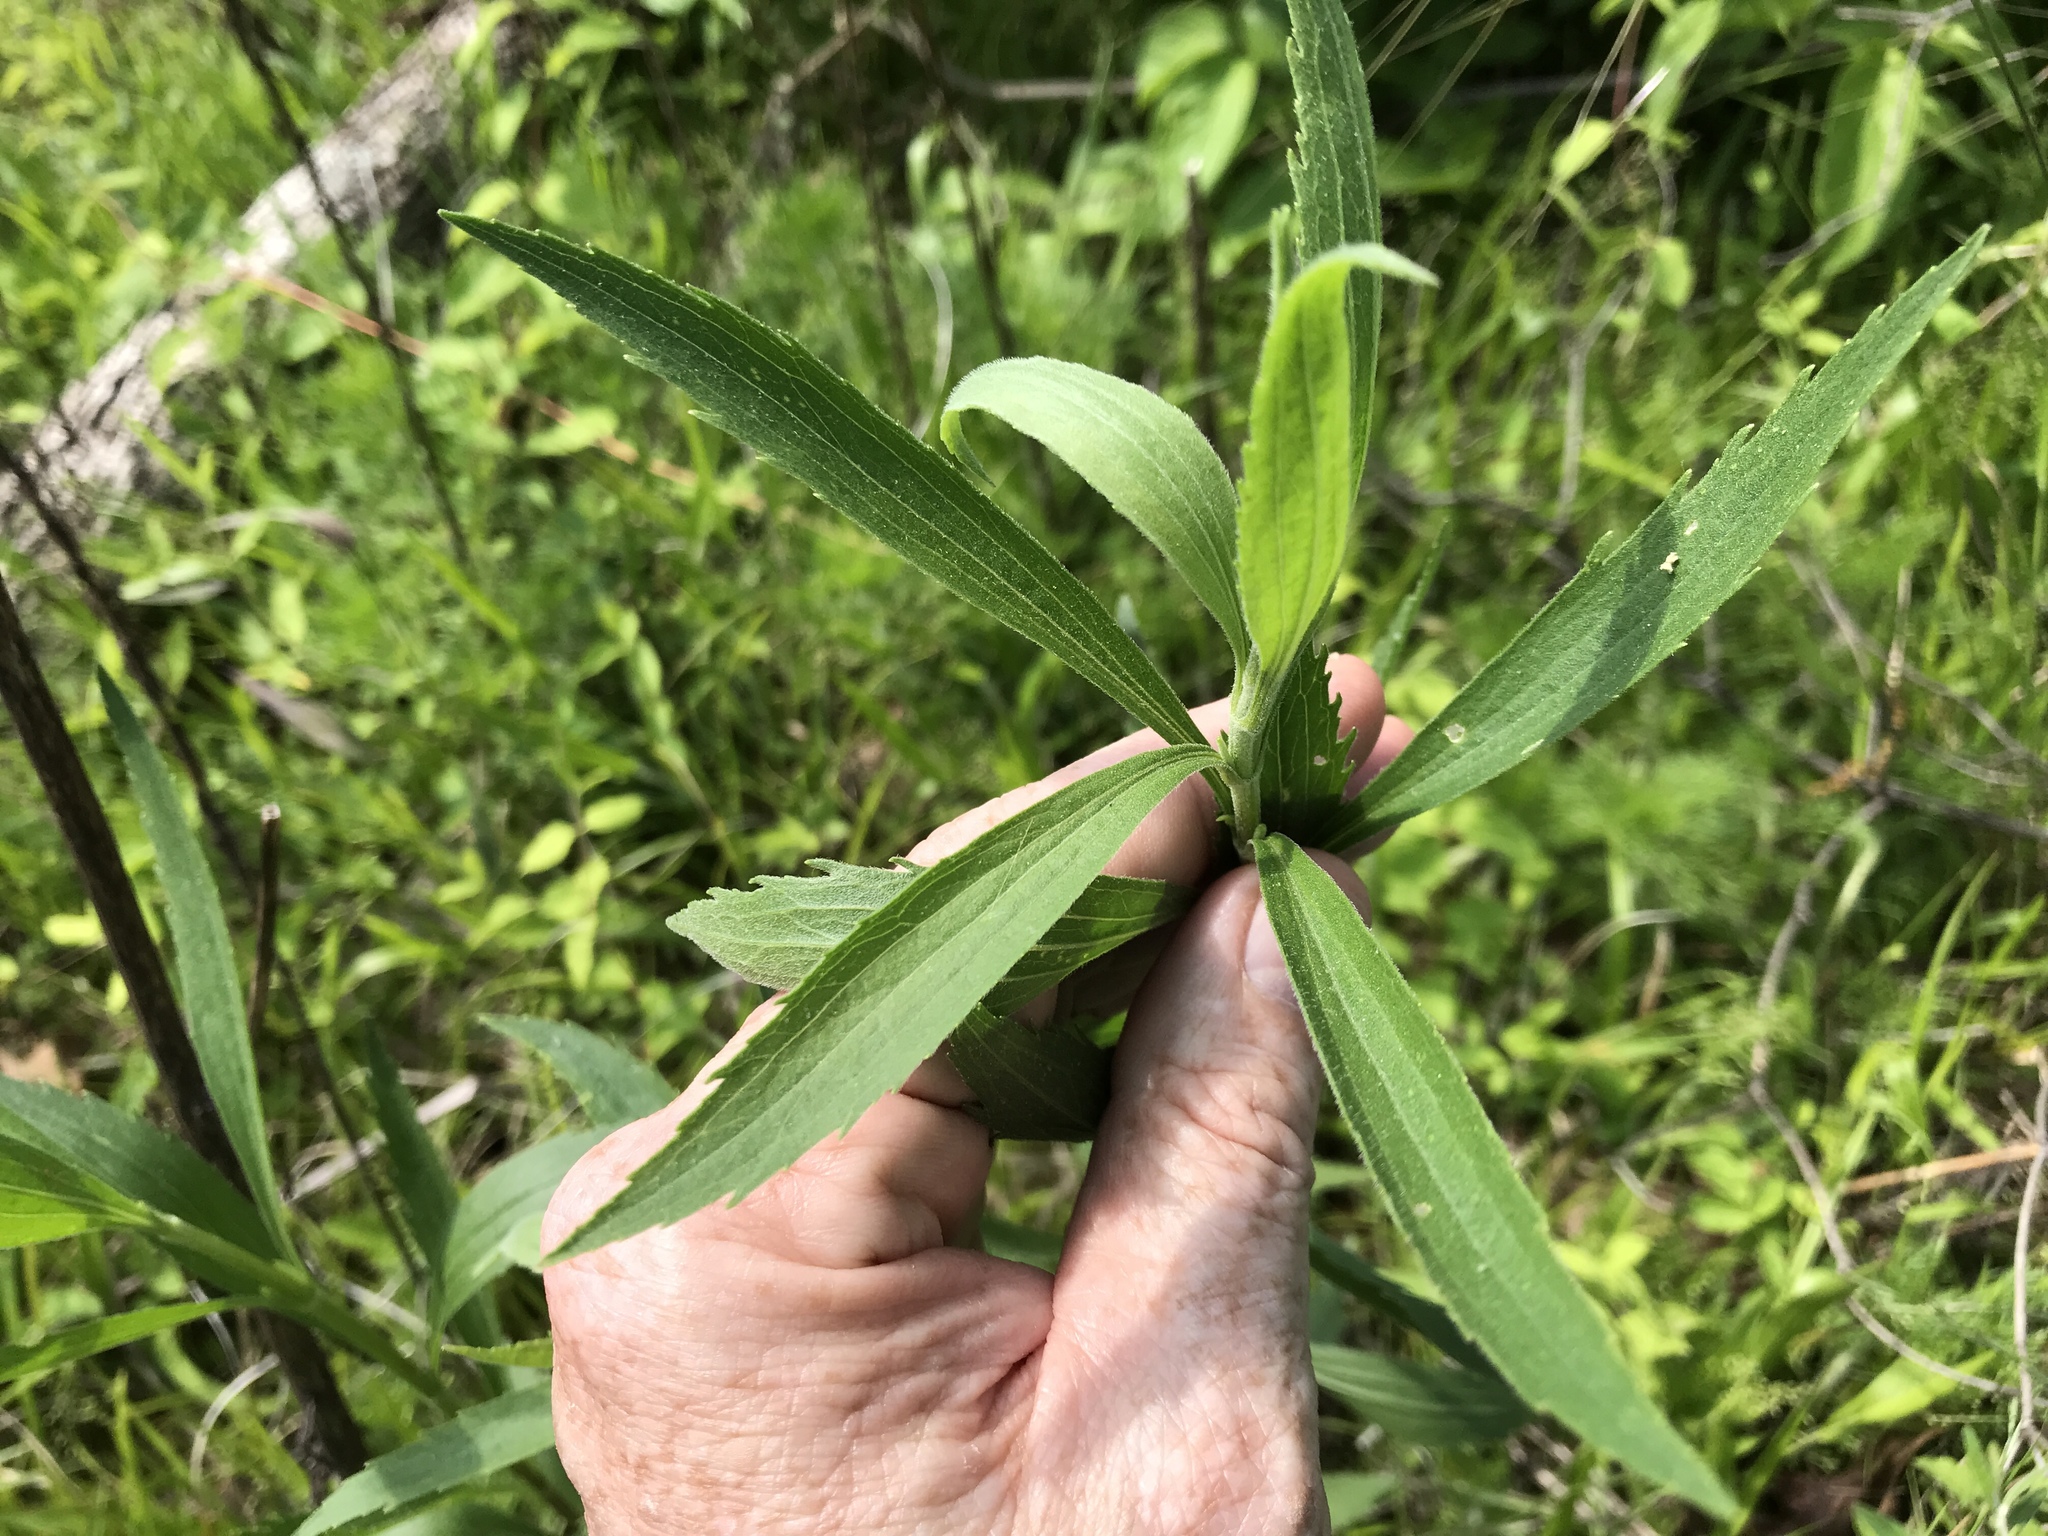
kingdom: Plantae
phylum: Tracheophyta
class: Magnoliopsida
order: Asterales
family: Asteraceae
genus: Eupatorium
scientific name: Eupatorium altissimum
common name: Tall thoroughwort
